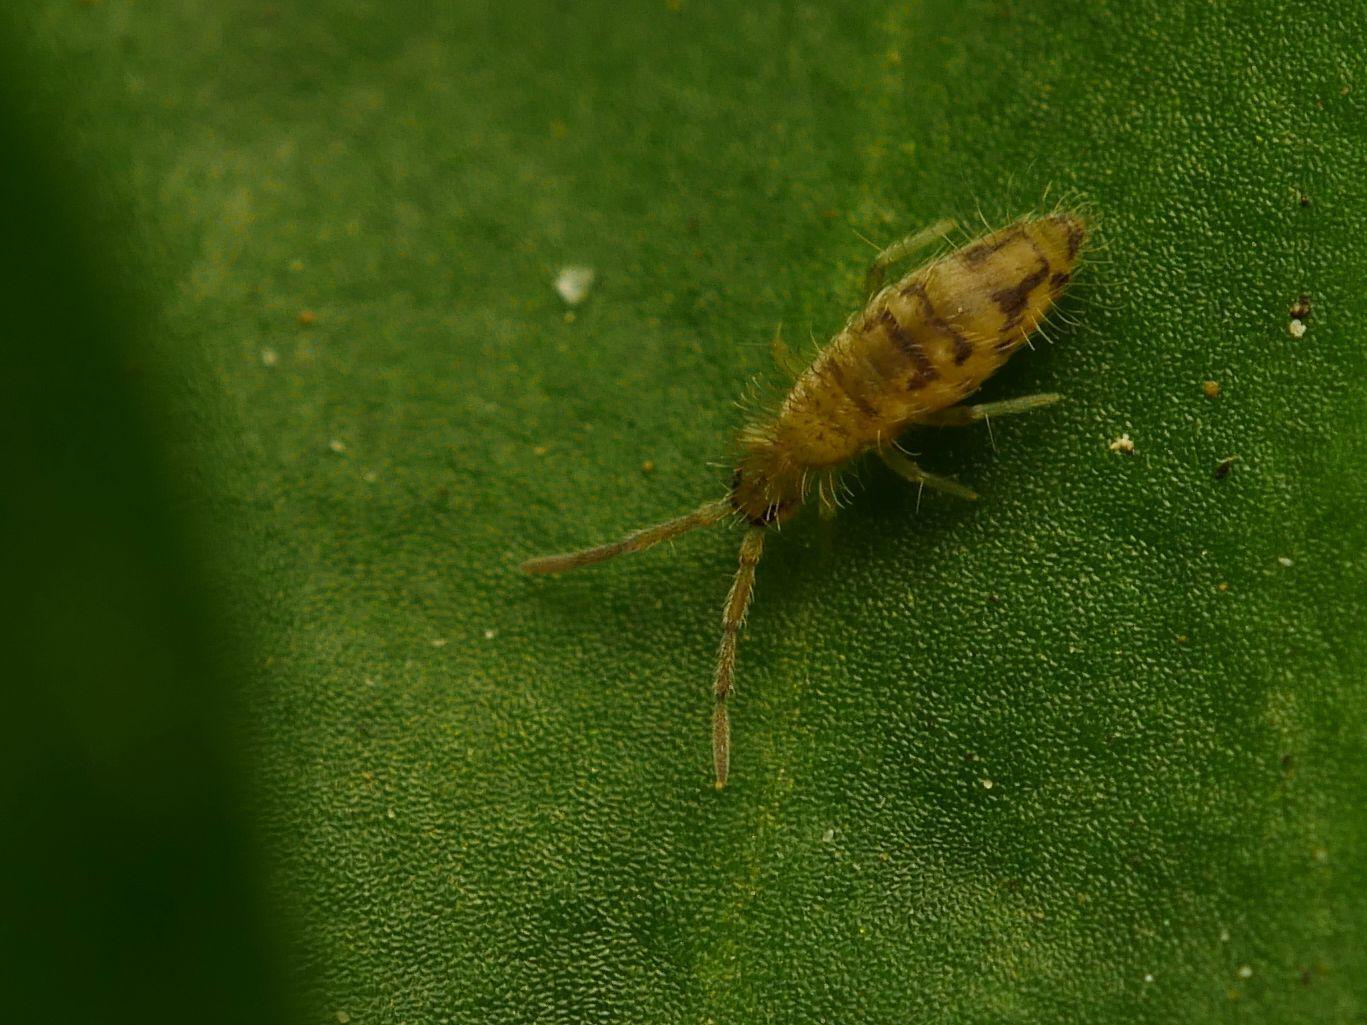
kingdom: Animalia
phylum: Arthropoda
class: Collembola
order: Entomobryomorpha
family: Entomobryidae
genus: Entomobrya
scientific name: Entomobrya nivalis
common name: Cosmopolitan springtail
